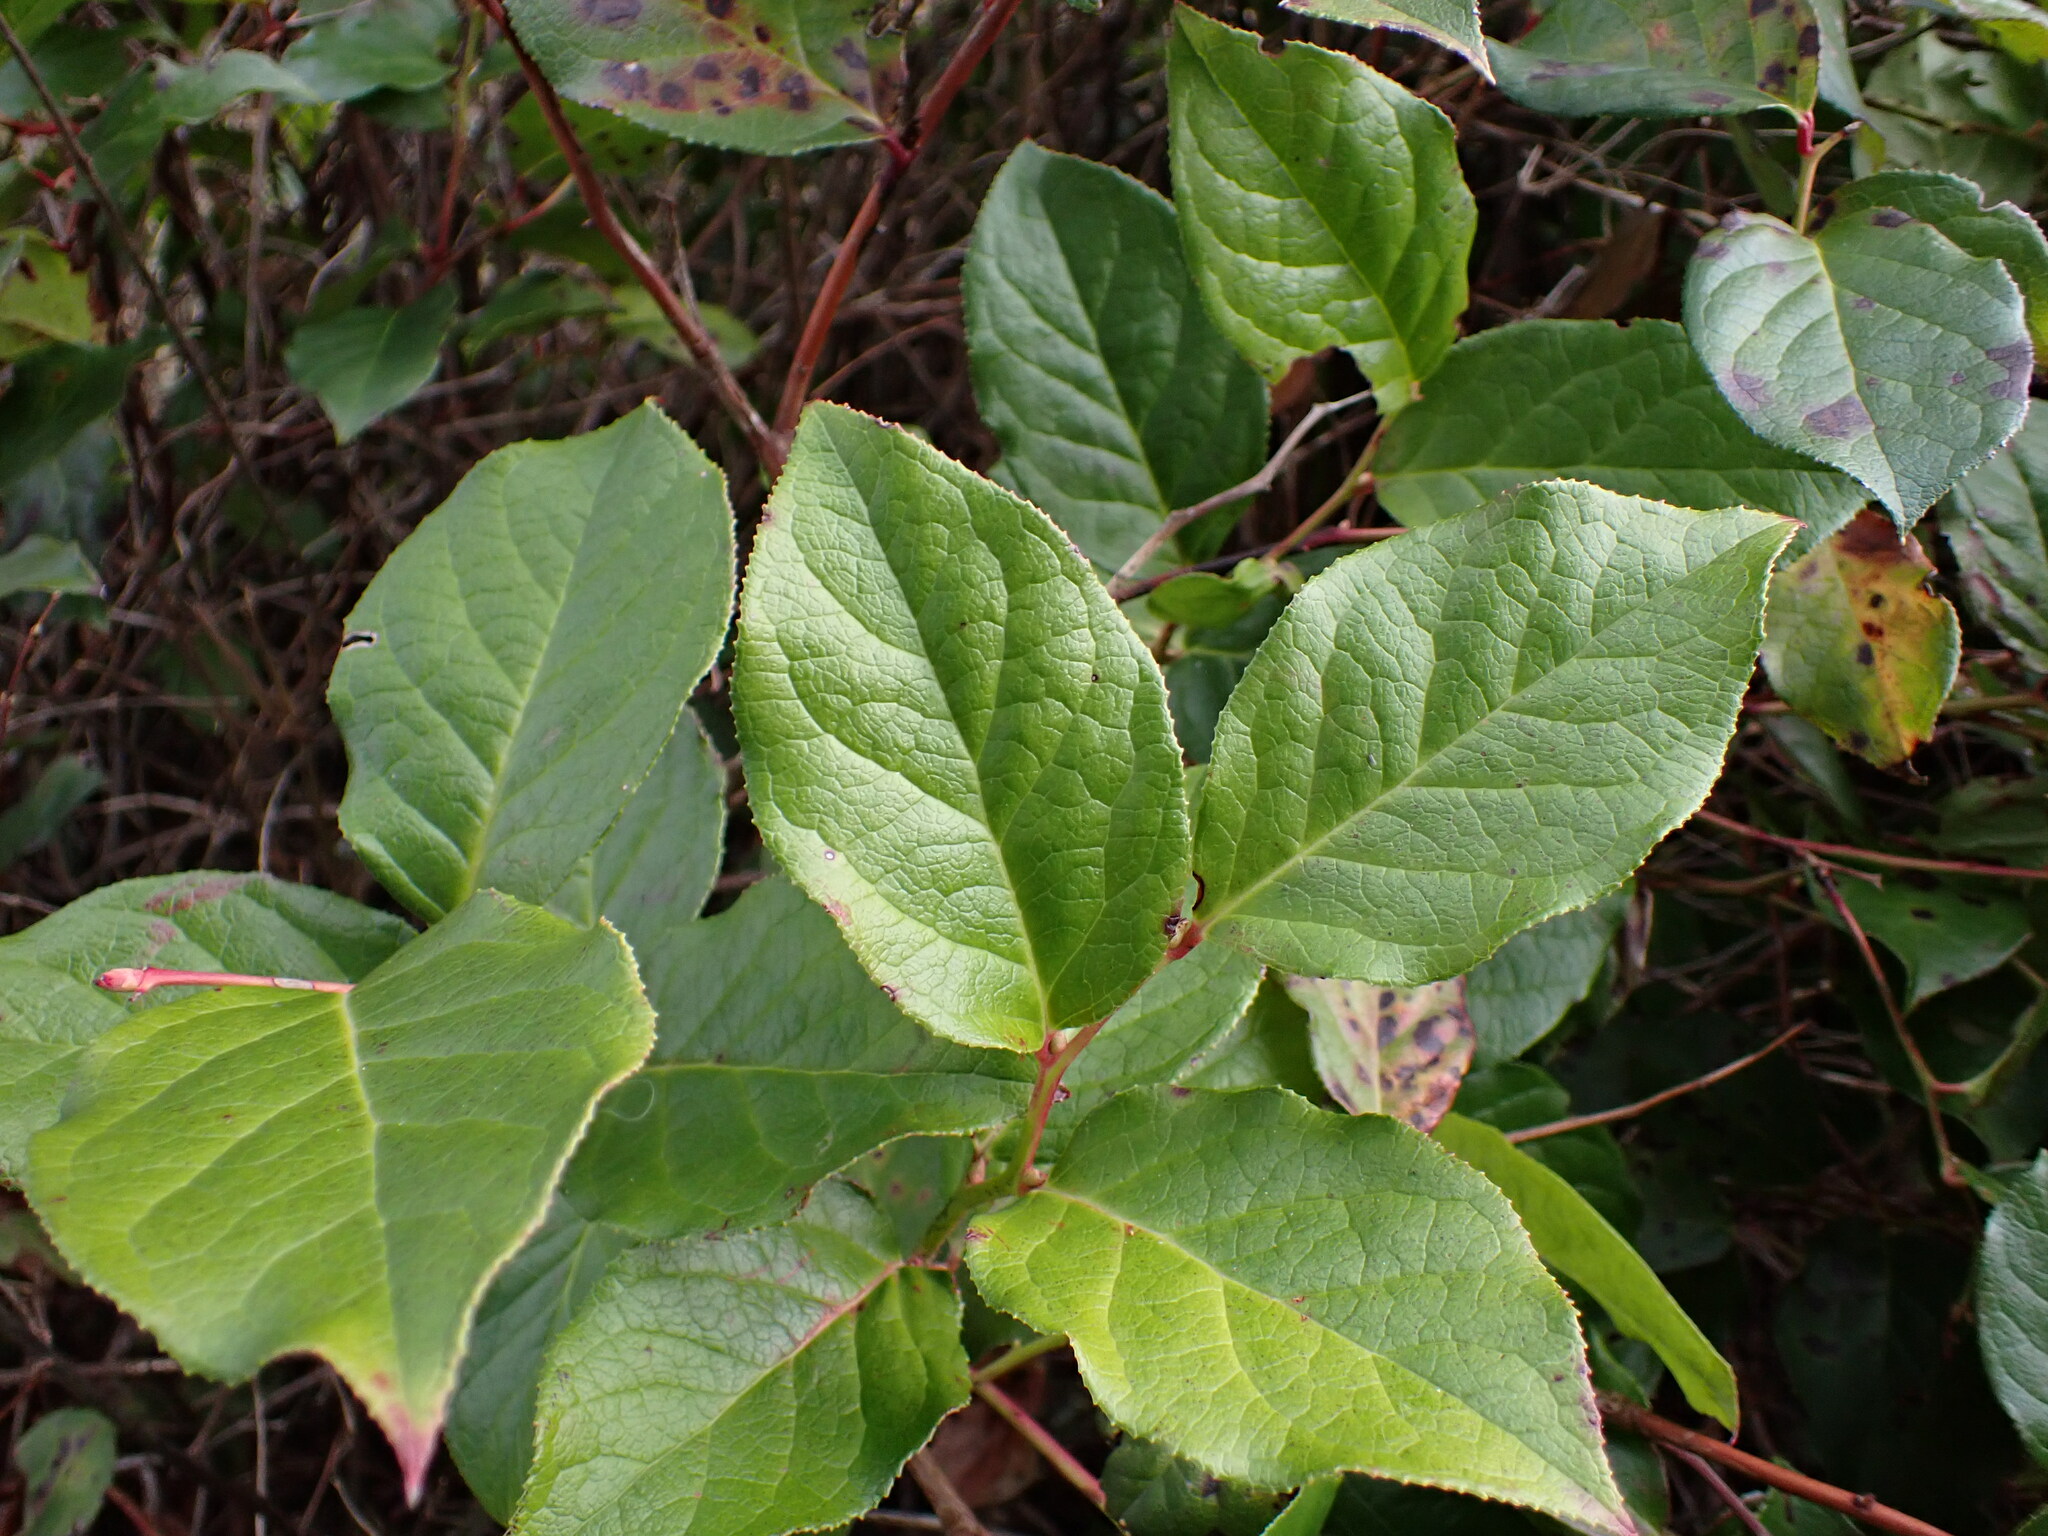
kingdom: Plantae
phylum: Tracheophyta
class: Magnoliopsida
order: Ericales
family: Ericaceae
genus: Gaultheria
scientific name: Gaultheria shallon
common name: Shallon
